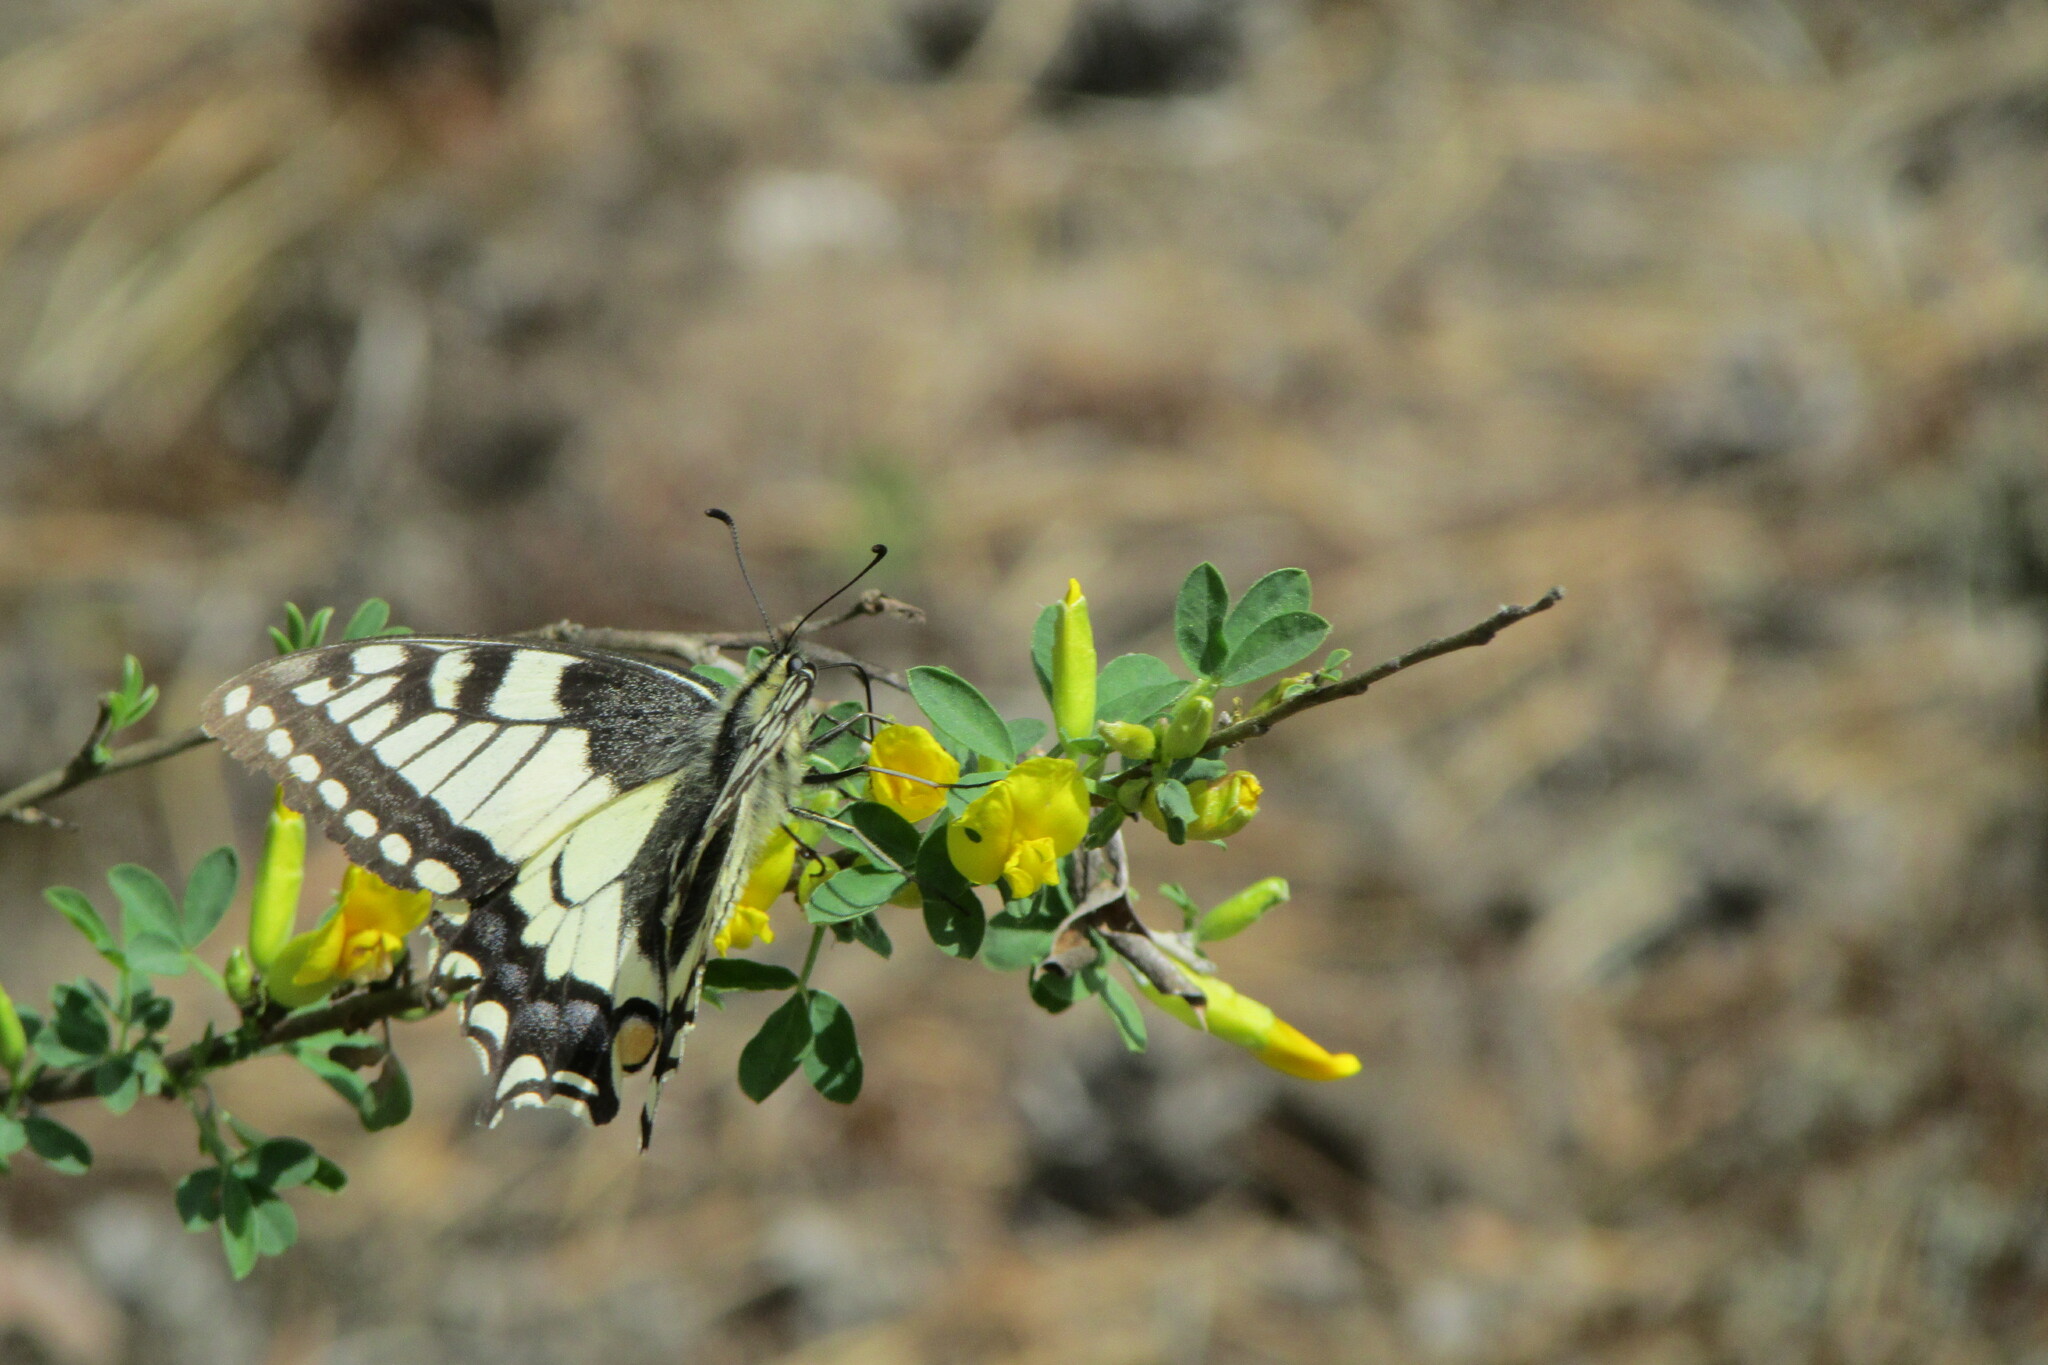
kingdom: Animalia
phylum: Arthropoda
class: Insecta
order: Lepidoptera
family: Papilionidae
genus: Papilio
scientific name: Papilio machaon
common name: Swallowtail
